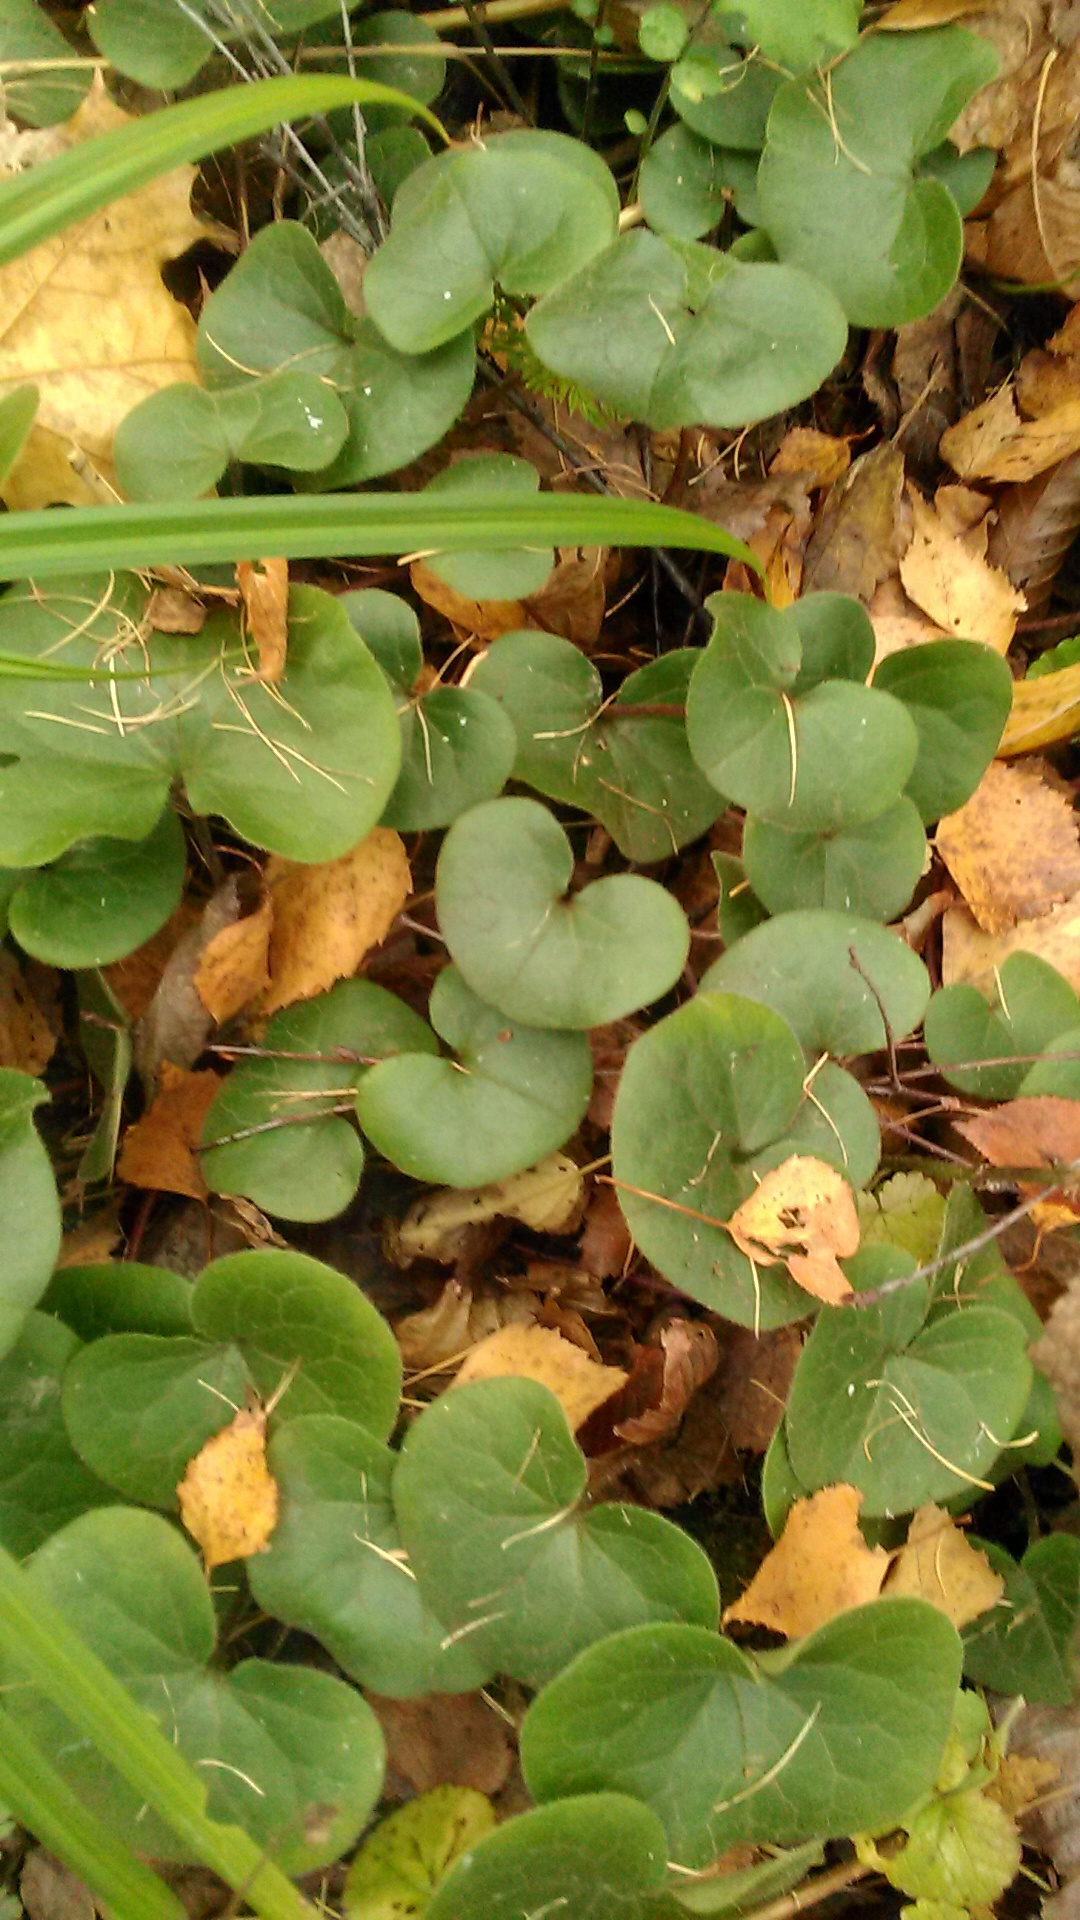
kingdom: Plantae
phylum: Tracheophyta
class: Magnoliopsida
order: Piperales
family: Aristolochiaceae
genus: Asarum
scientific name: Asarum europaeum
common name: Asarabacca
